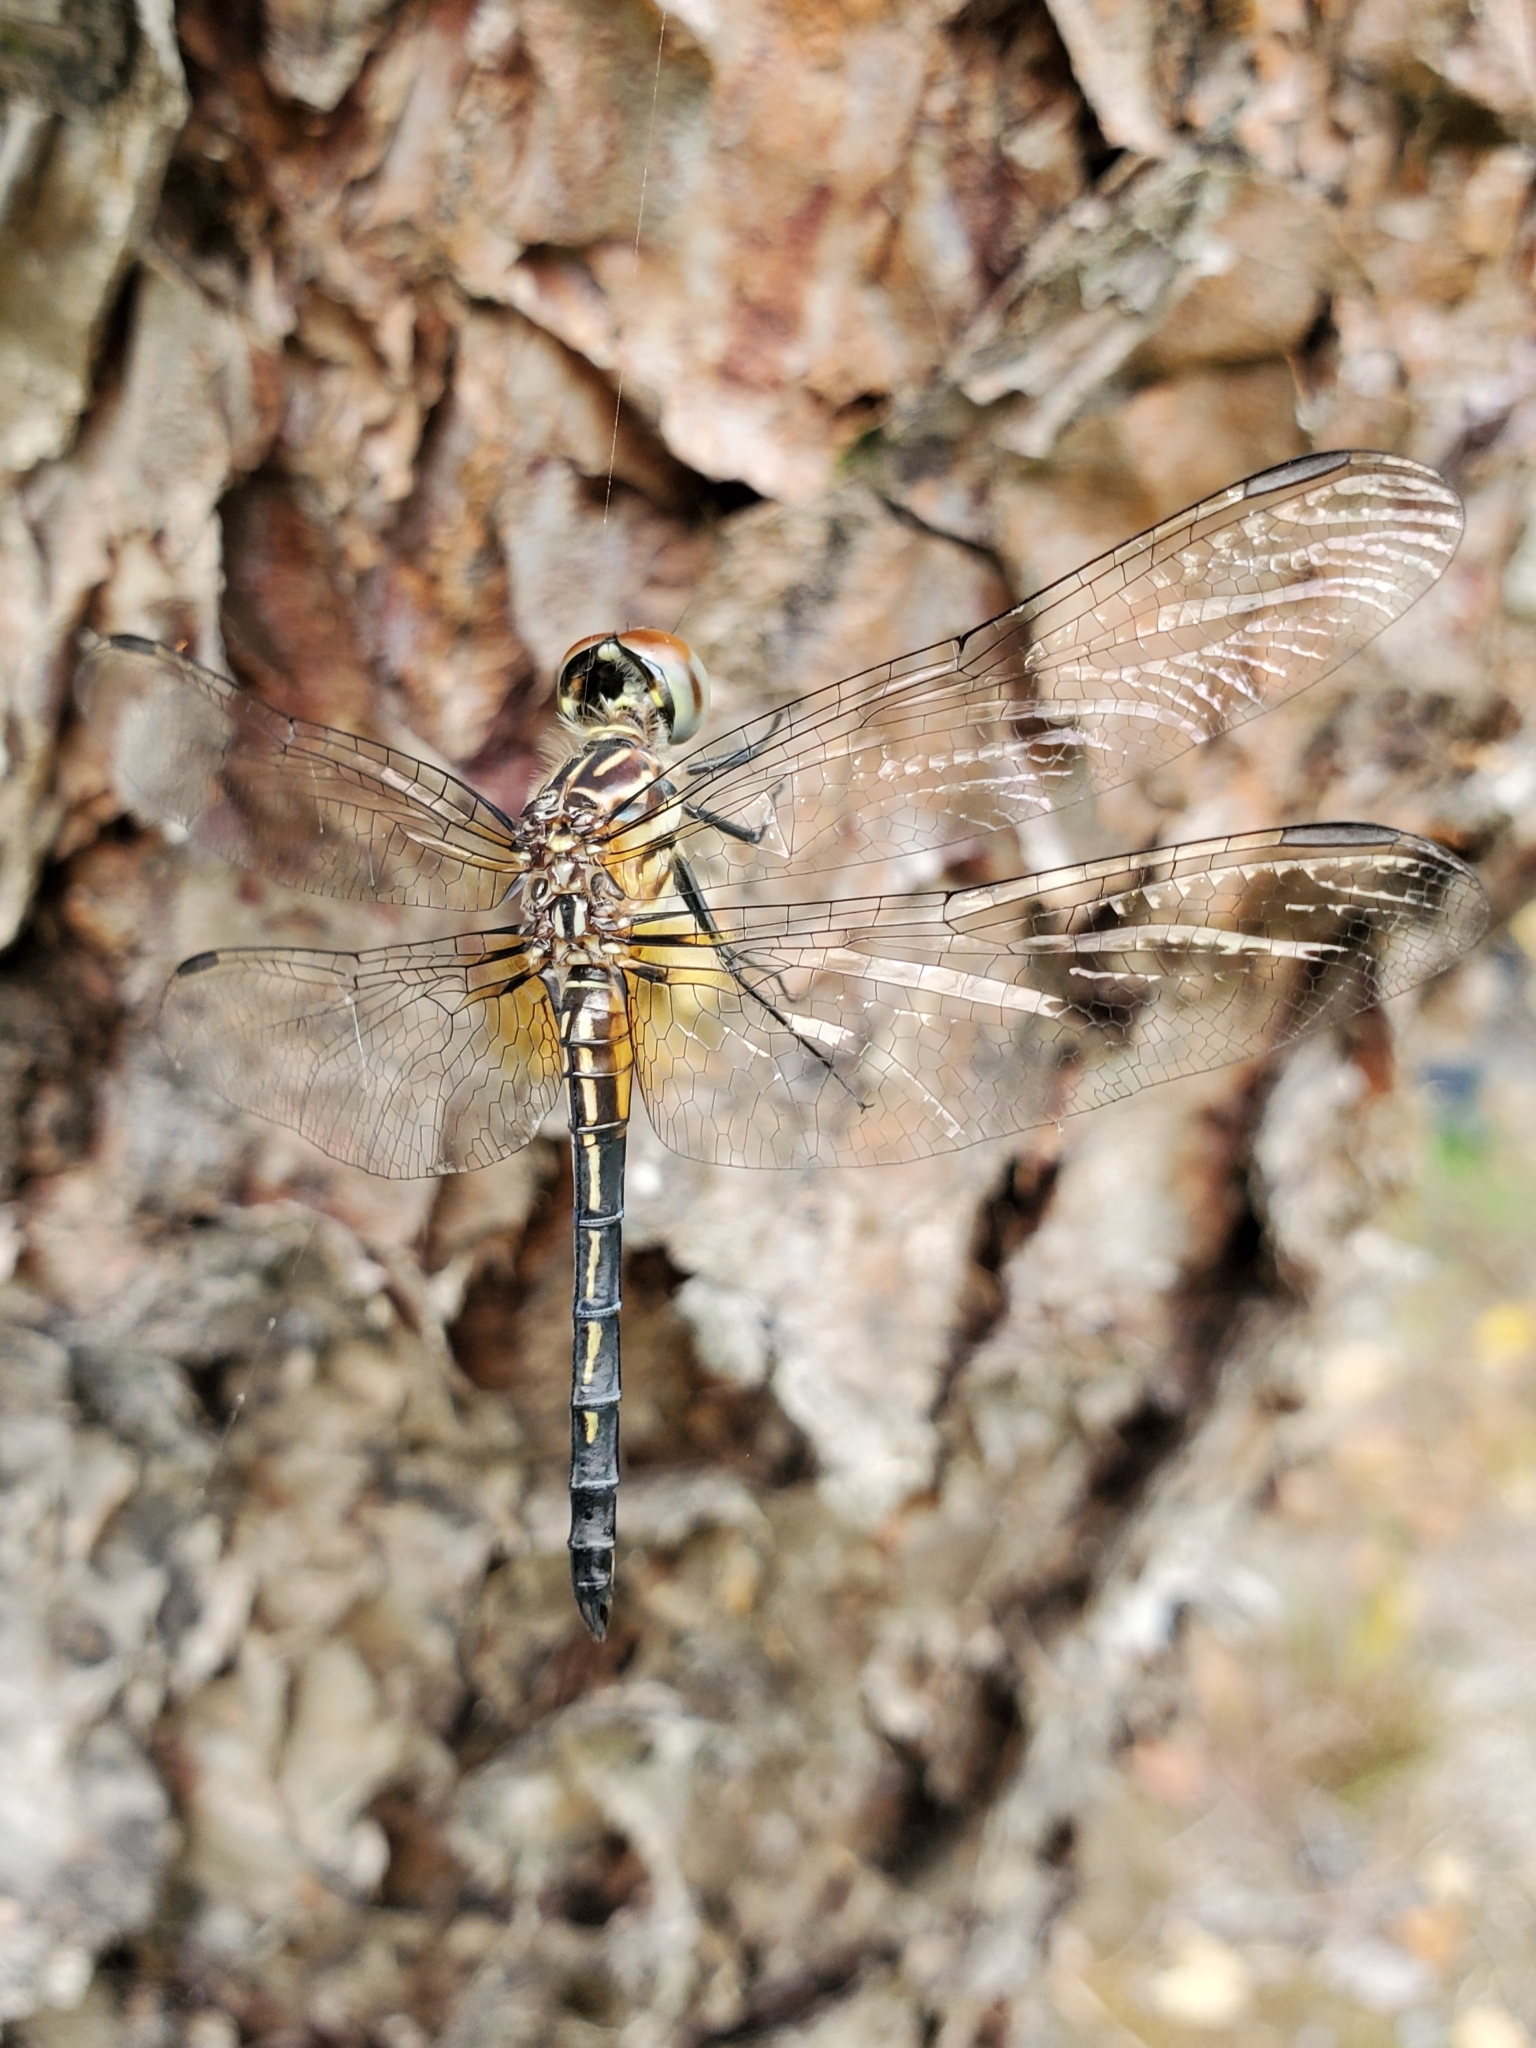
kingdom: Animalia
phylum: Arthropoda
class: Insecta
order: Odonata
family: Libellulidae
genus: Pachydiplax
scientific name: Pachydiplax longipennis
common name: Blue dasher
